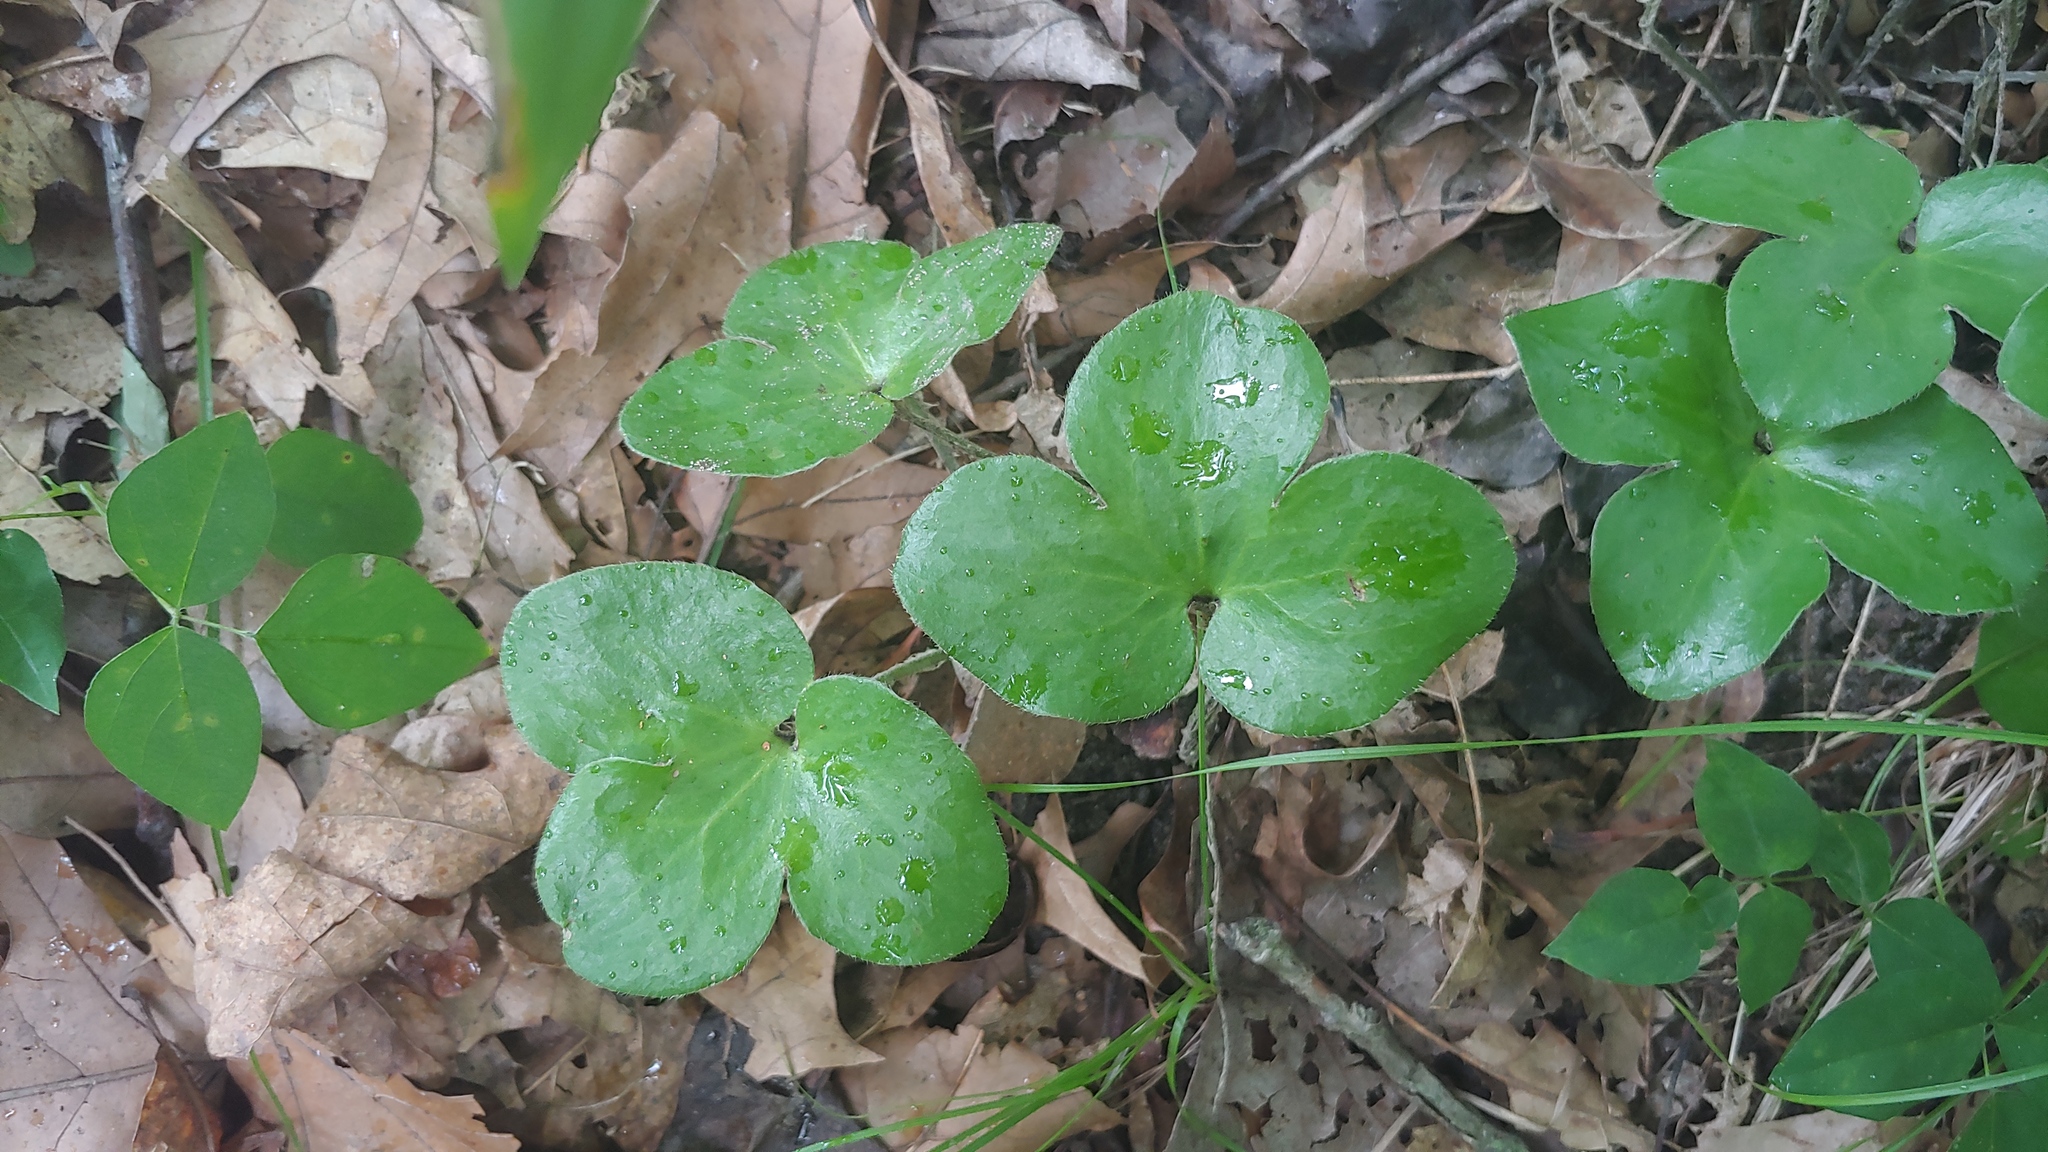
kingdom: Plantae
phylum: Tracheophyta
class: Magnoliopsida
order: Ranunculales
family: Ranunculaceae
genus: Hepatica
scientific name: Hepatica americana
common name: American hepatica
